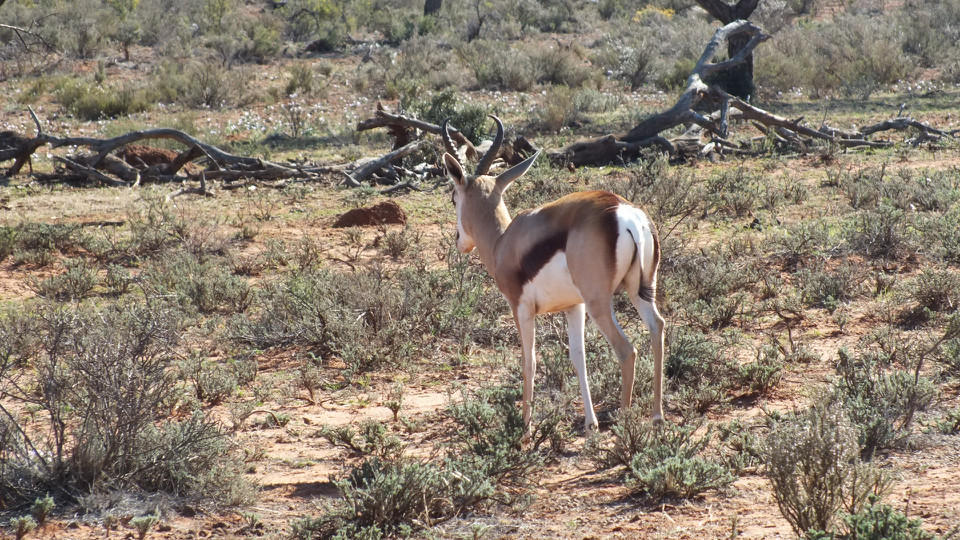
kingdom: Animalia
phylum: Chordata
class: Mammalia
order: Artiodactyla
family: Bovidae
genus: Antidorcas
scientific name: Antidorcas marsupialis
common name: Springbok
